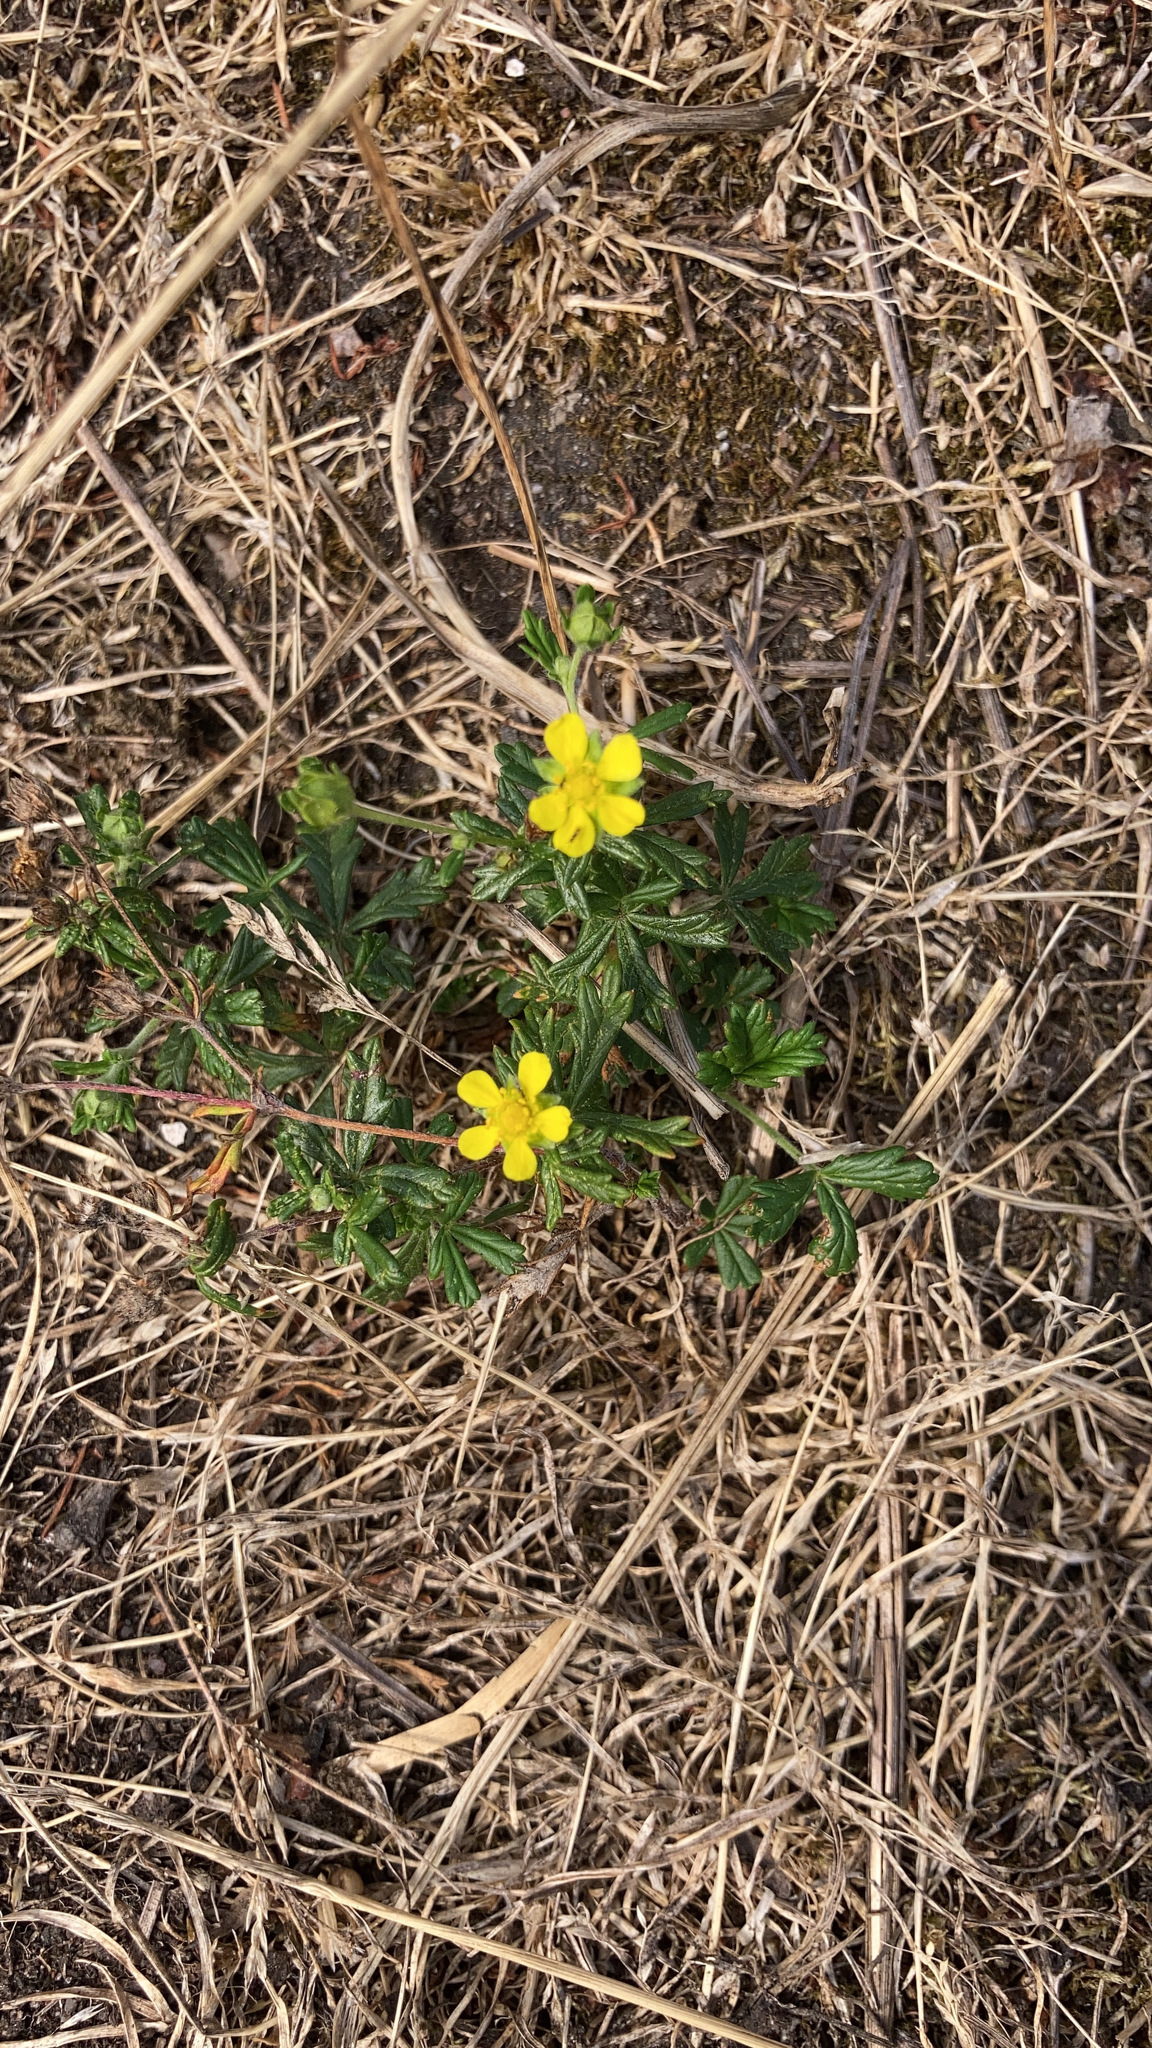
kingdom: Plantae
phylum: Tracheophyta
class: Magnoliopsida
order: Rosales
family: Rosaceae
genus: Potentilla
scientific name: Potentilla argentea
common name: Hoary cinquefoil
